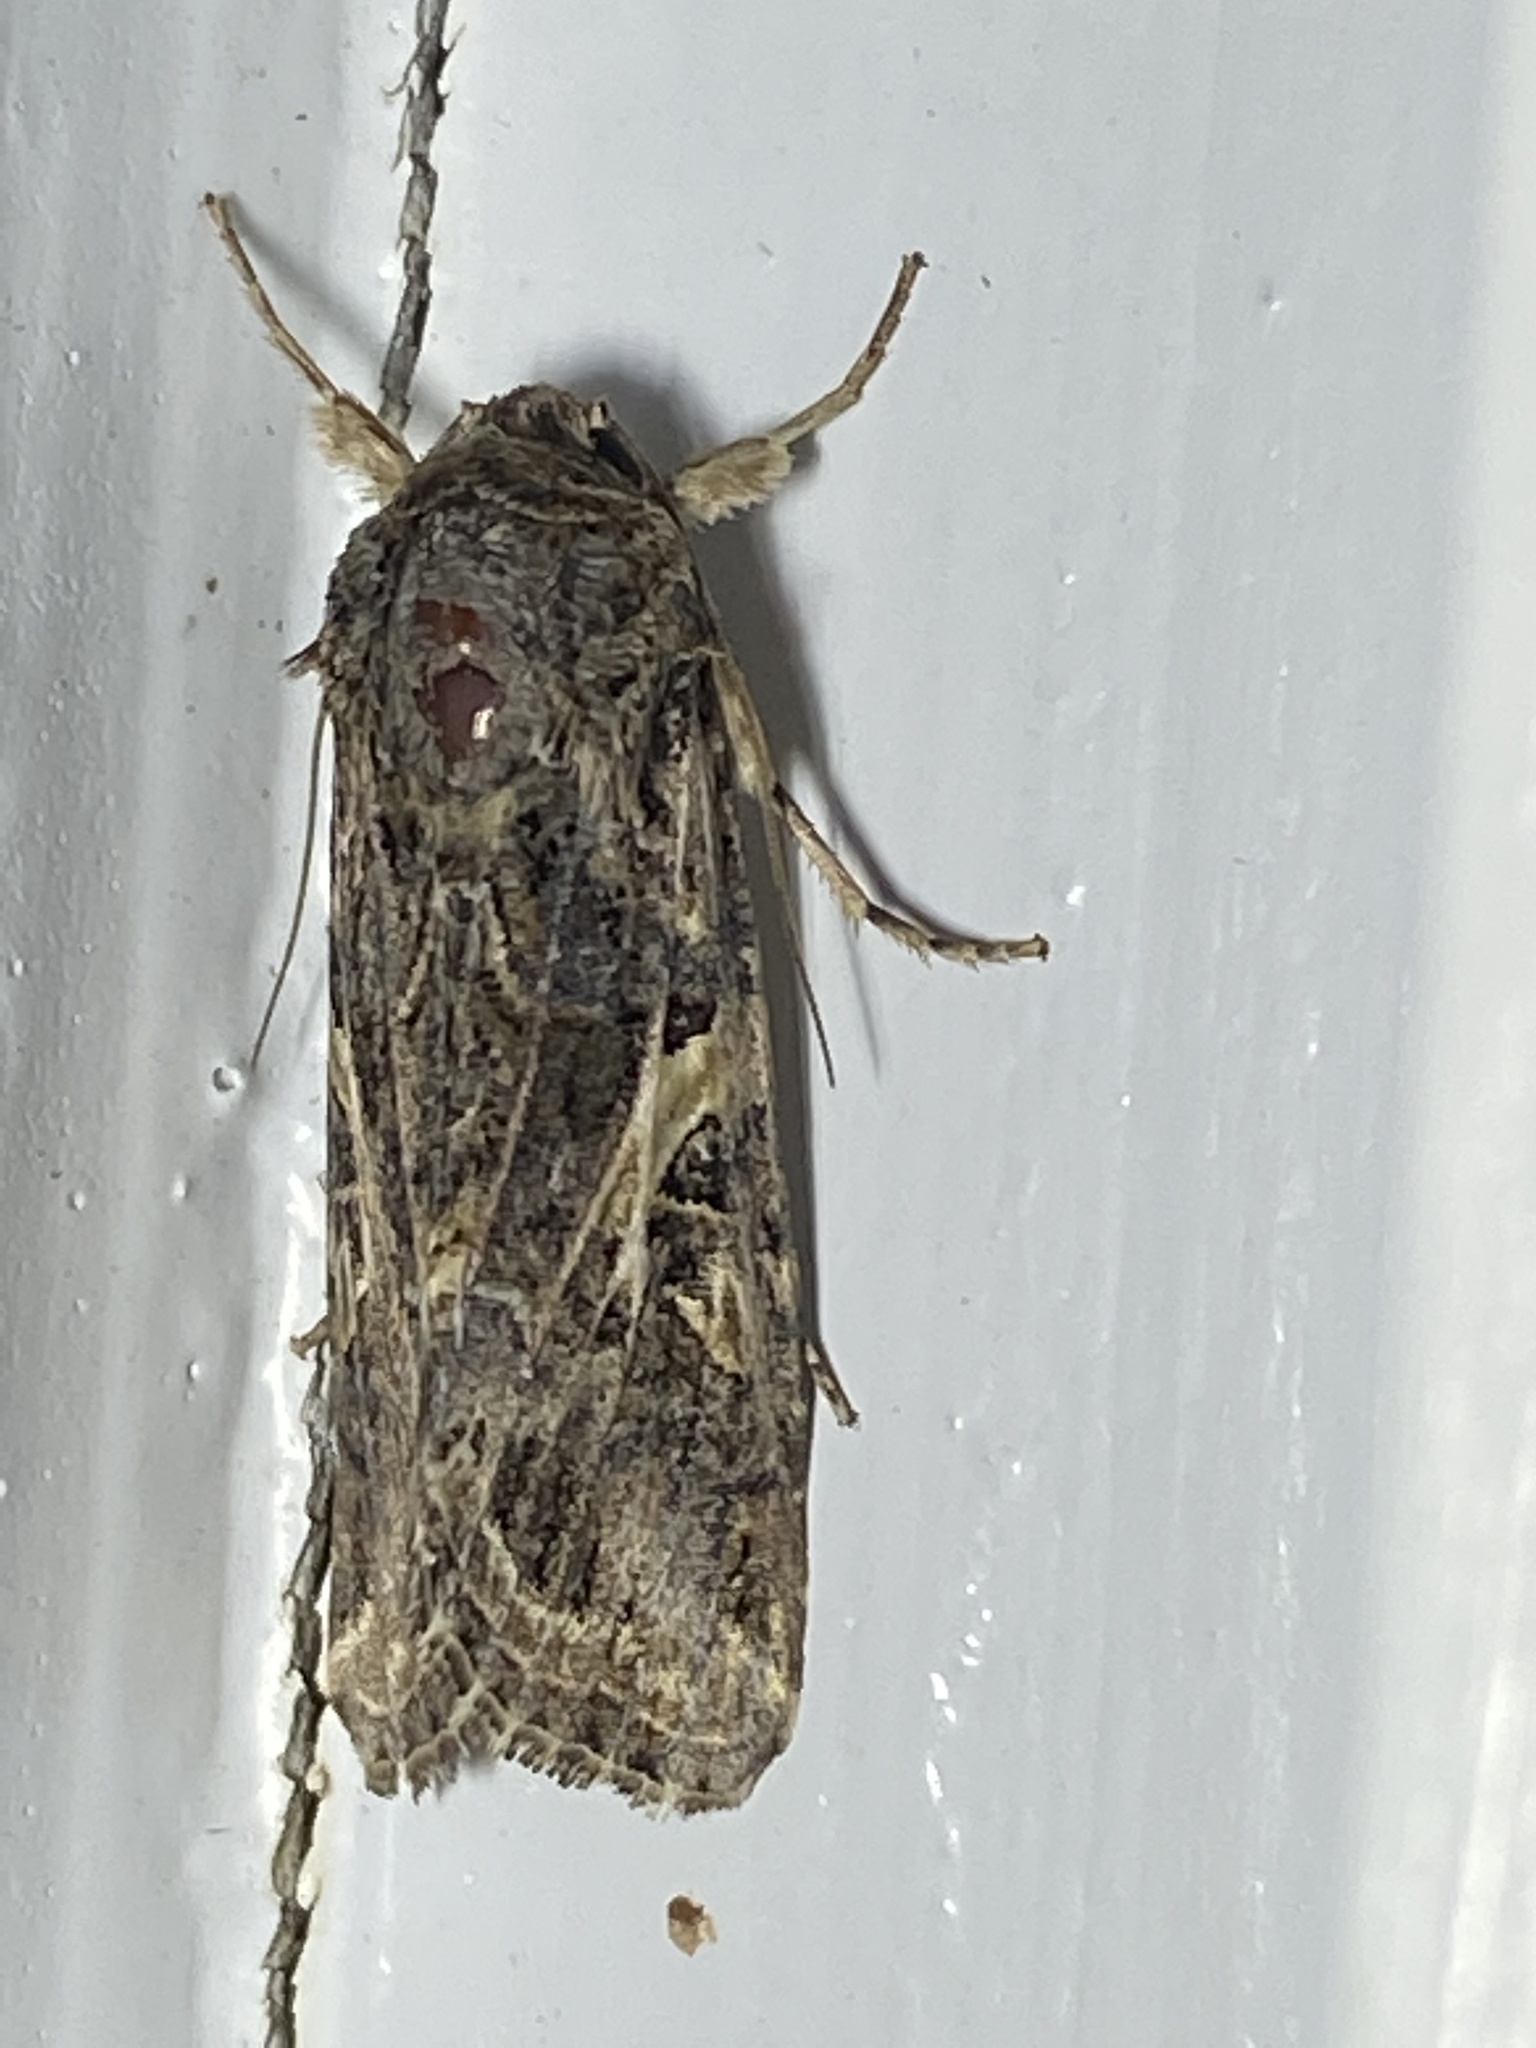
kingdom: Animalia
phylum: Arthropoda
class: Insecta
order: Lepidoptera
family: Noctuidae
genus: Spodoptera
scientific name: Spodoptera ornithogalli
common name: Yellow-striped armyworm
